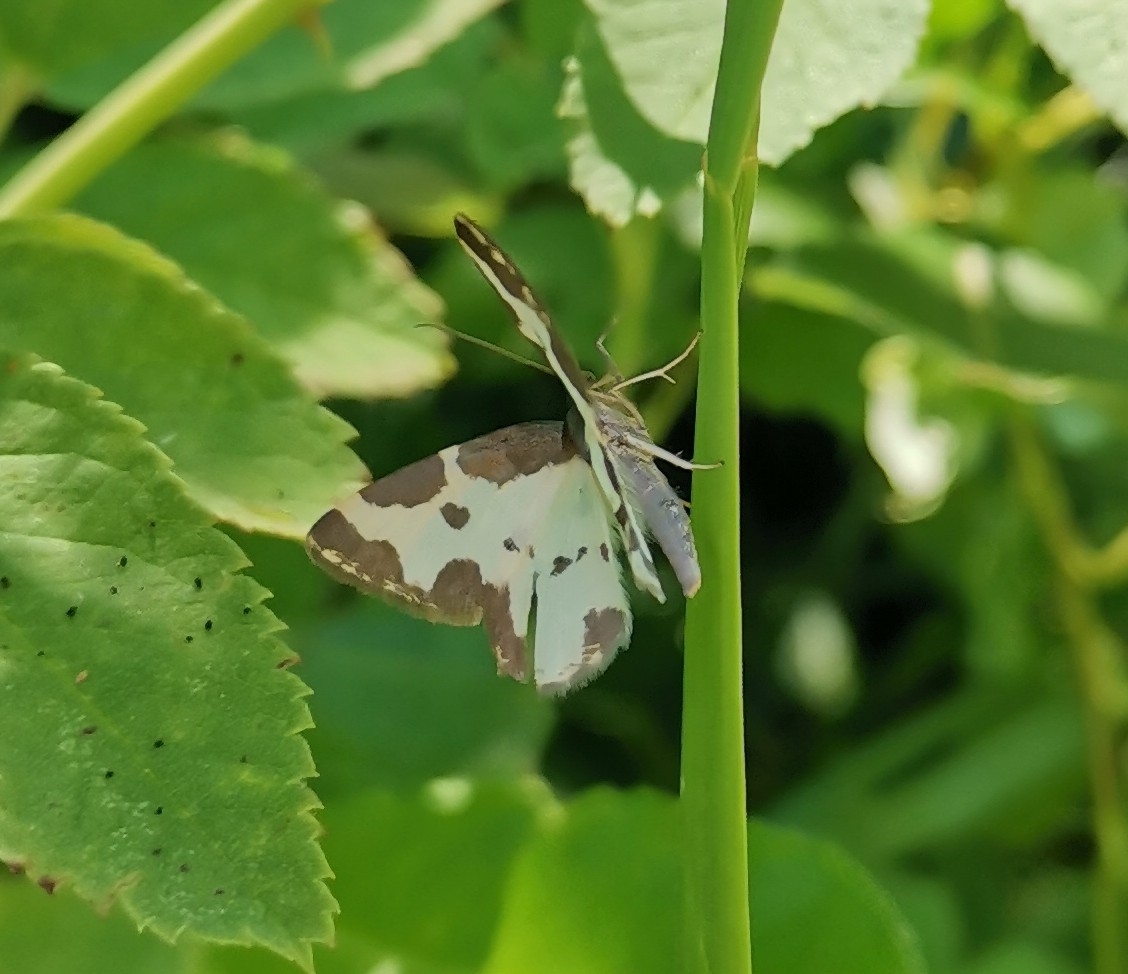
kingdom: Animalia
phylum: Arthropoda
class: Insecta
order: Lepidoptera
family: Geometridae
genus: Lomaspilis
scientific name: Lomaspilis marginata
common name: Clouded border
